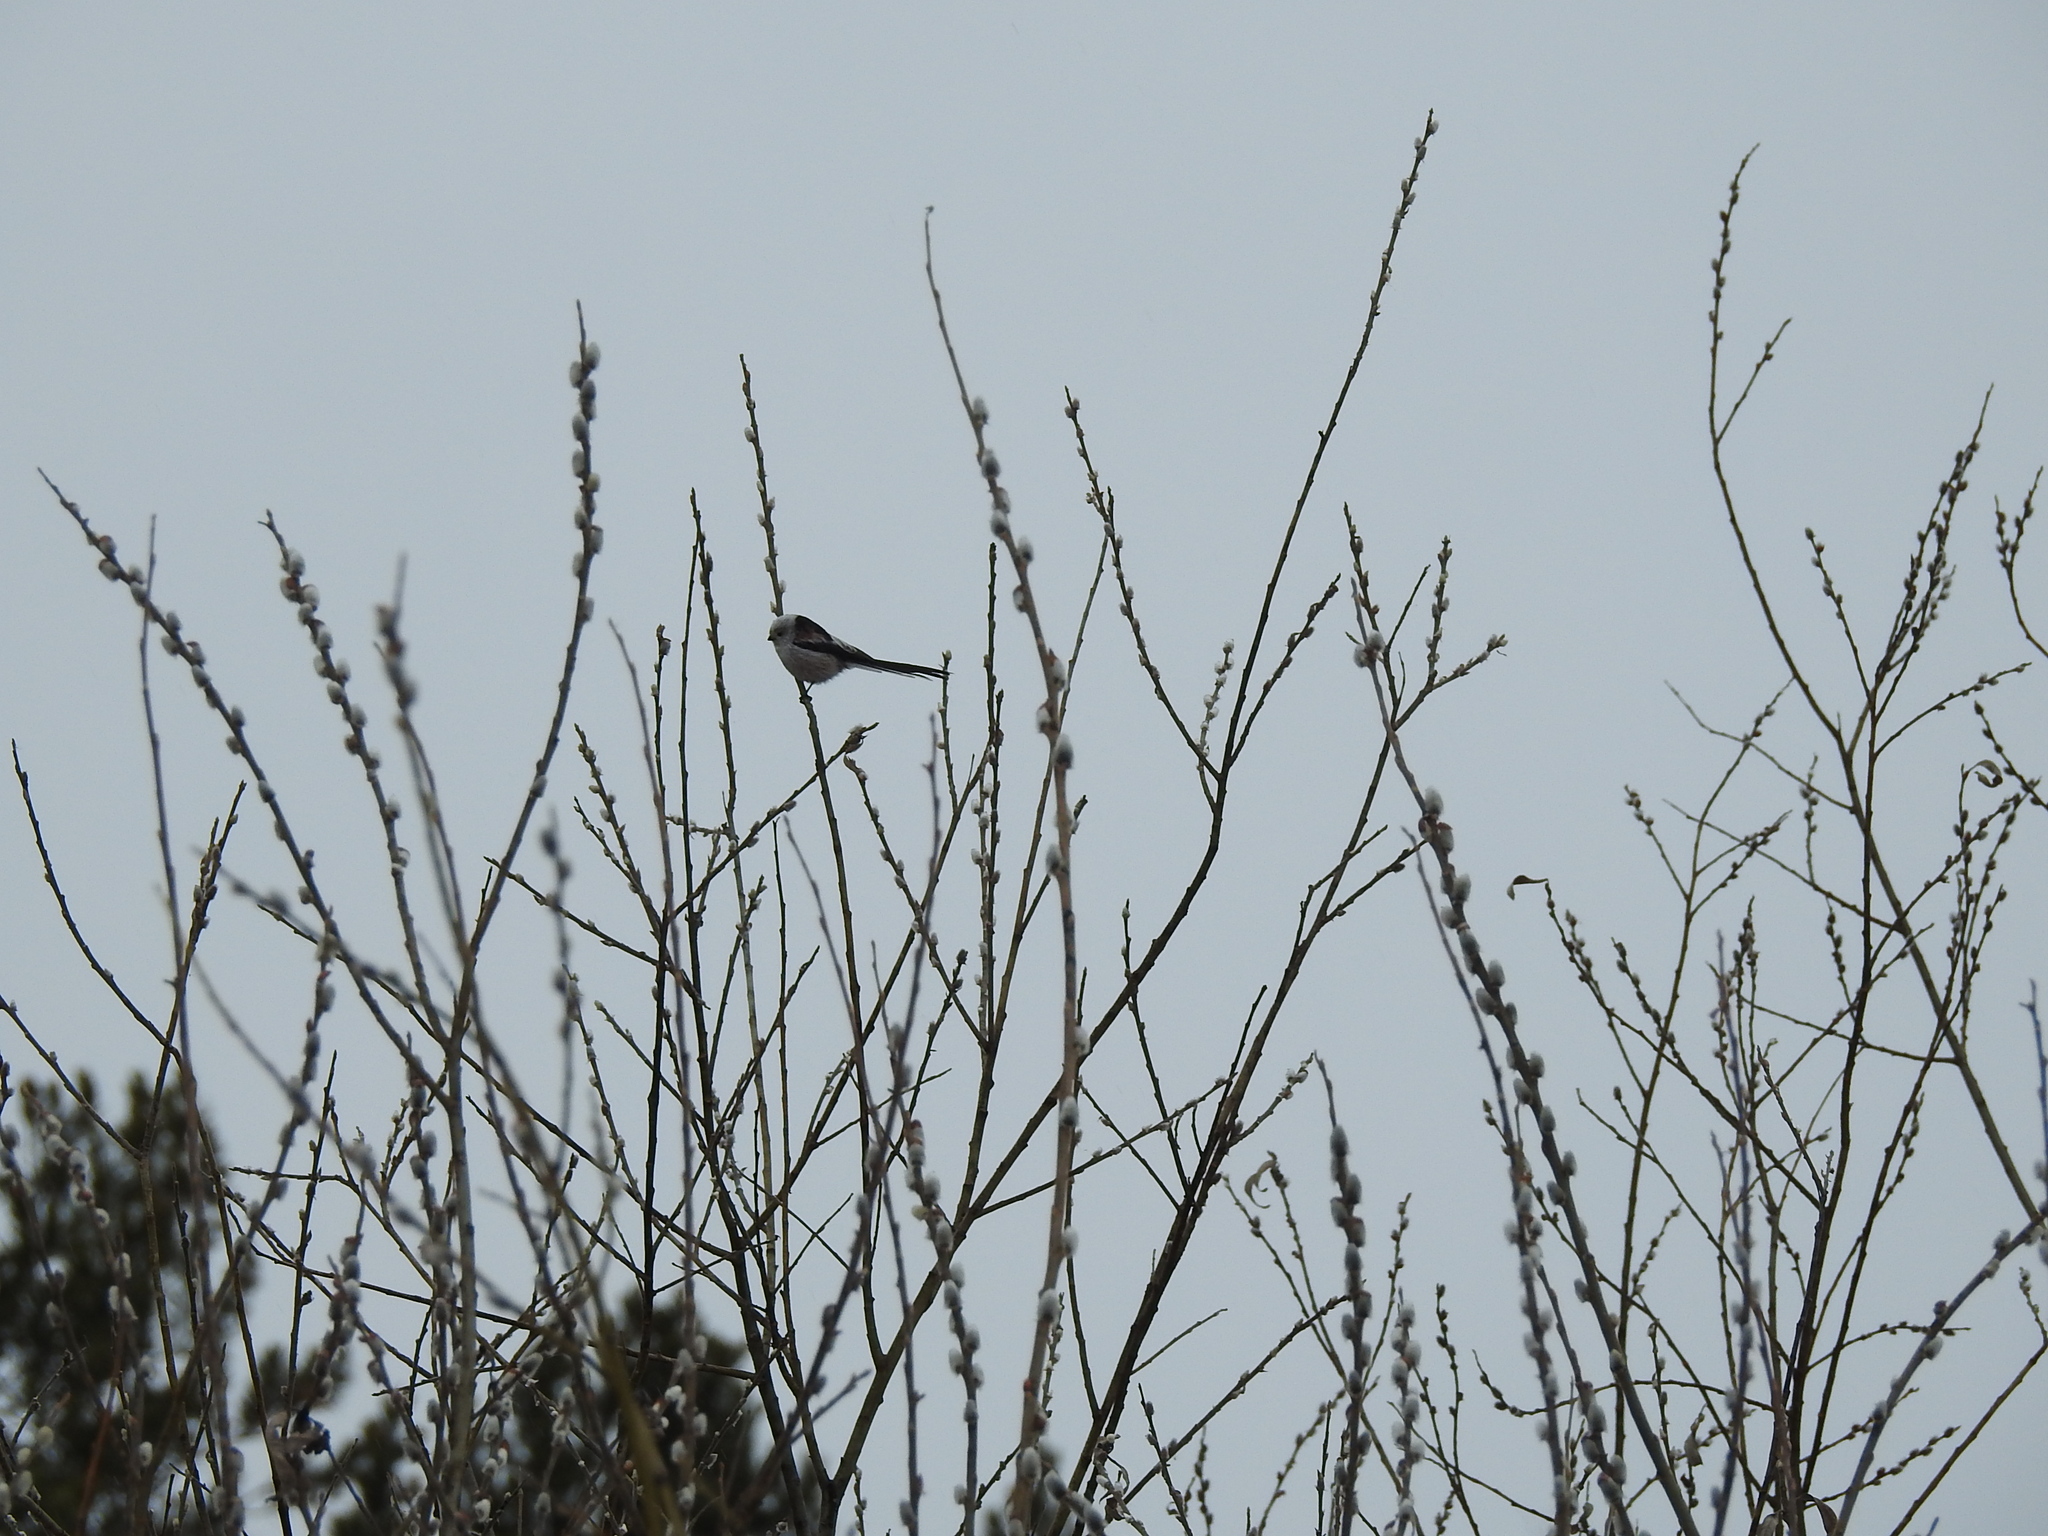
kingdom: Animalia
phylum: Chordata
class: Aves
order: Passeriformes
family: Aegithalidae
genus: Aegithalos
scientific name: Aegithalos caudatus
